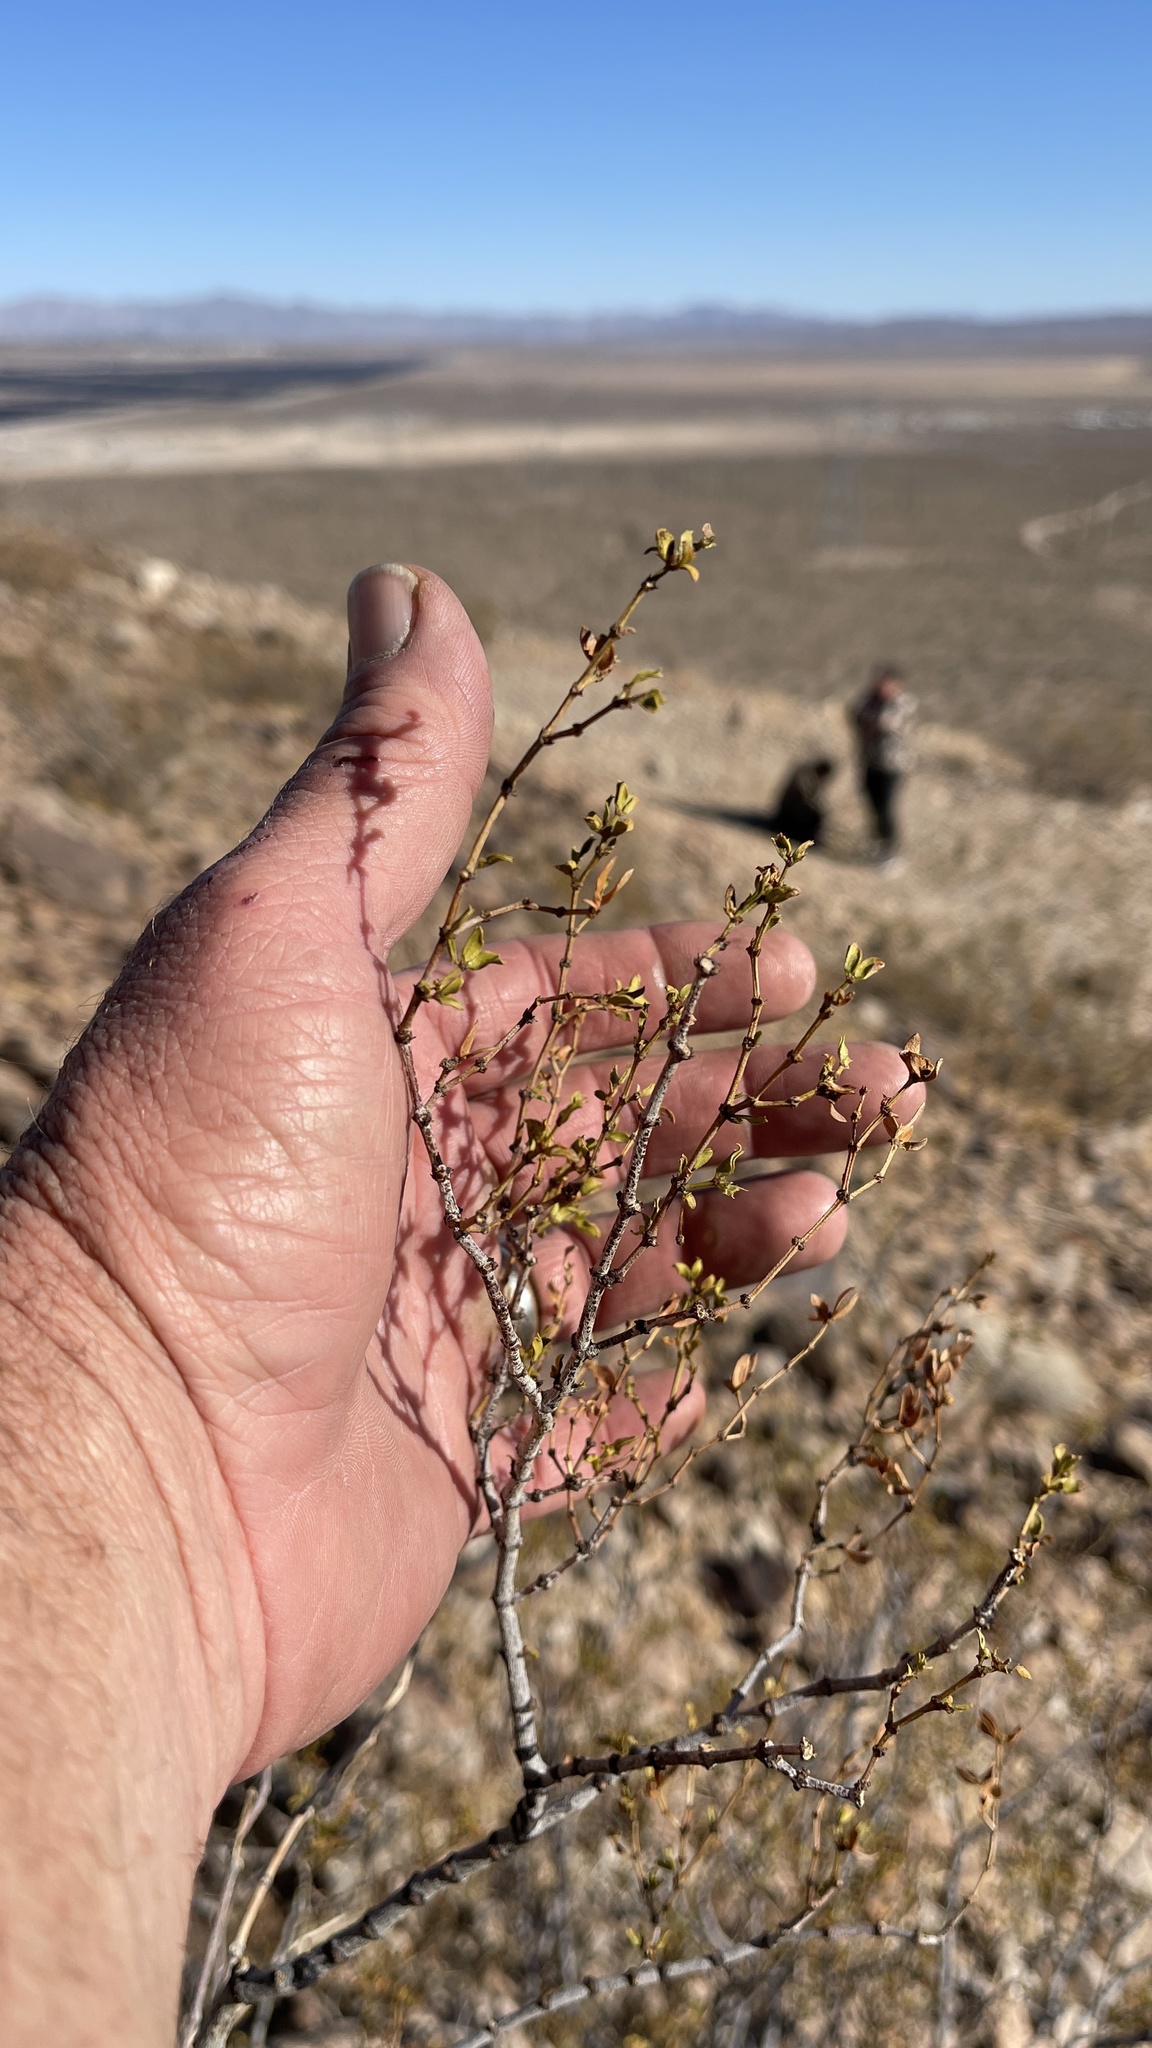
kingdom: Plantae
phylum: Tracheophyta
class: Magnoliopsida
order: Zygophyllales
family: Zygophyllaceae
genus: Larrea
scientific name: Larrea tridentata
